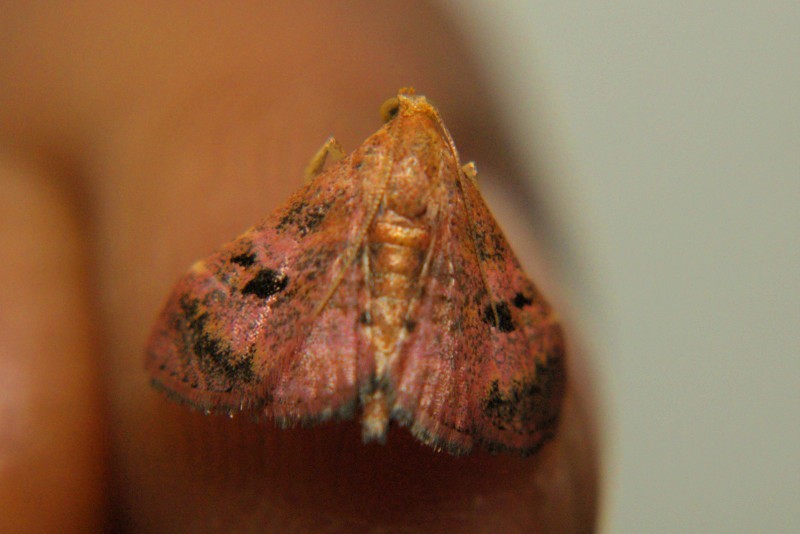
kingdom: Animalia
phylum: Arthropoda
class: Insecta
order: Lepidoptera
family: Pyralidae
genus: Perisseretma
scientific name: Perisseretma endotrichalis
